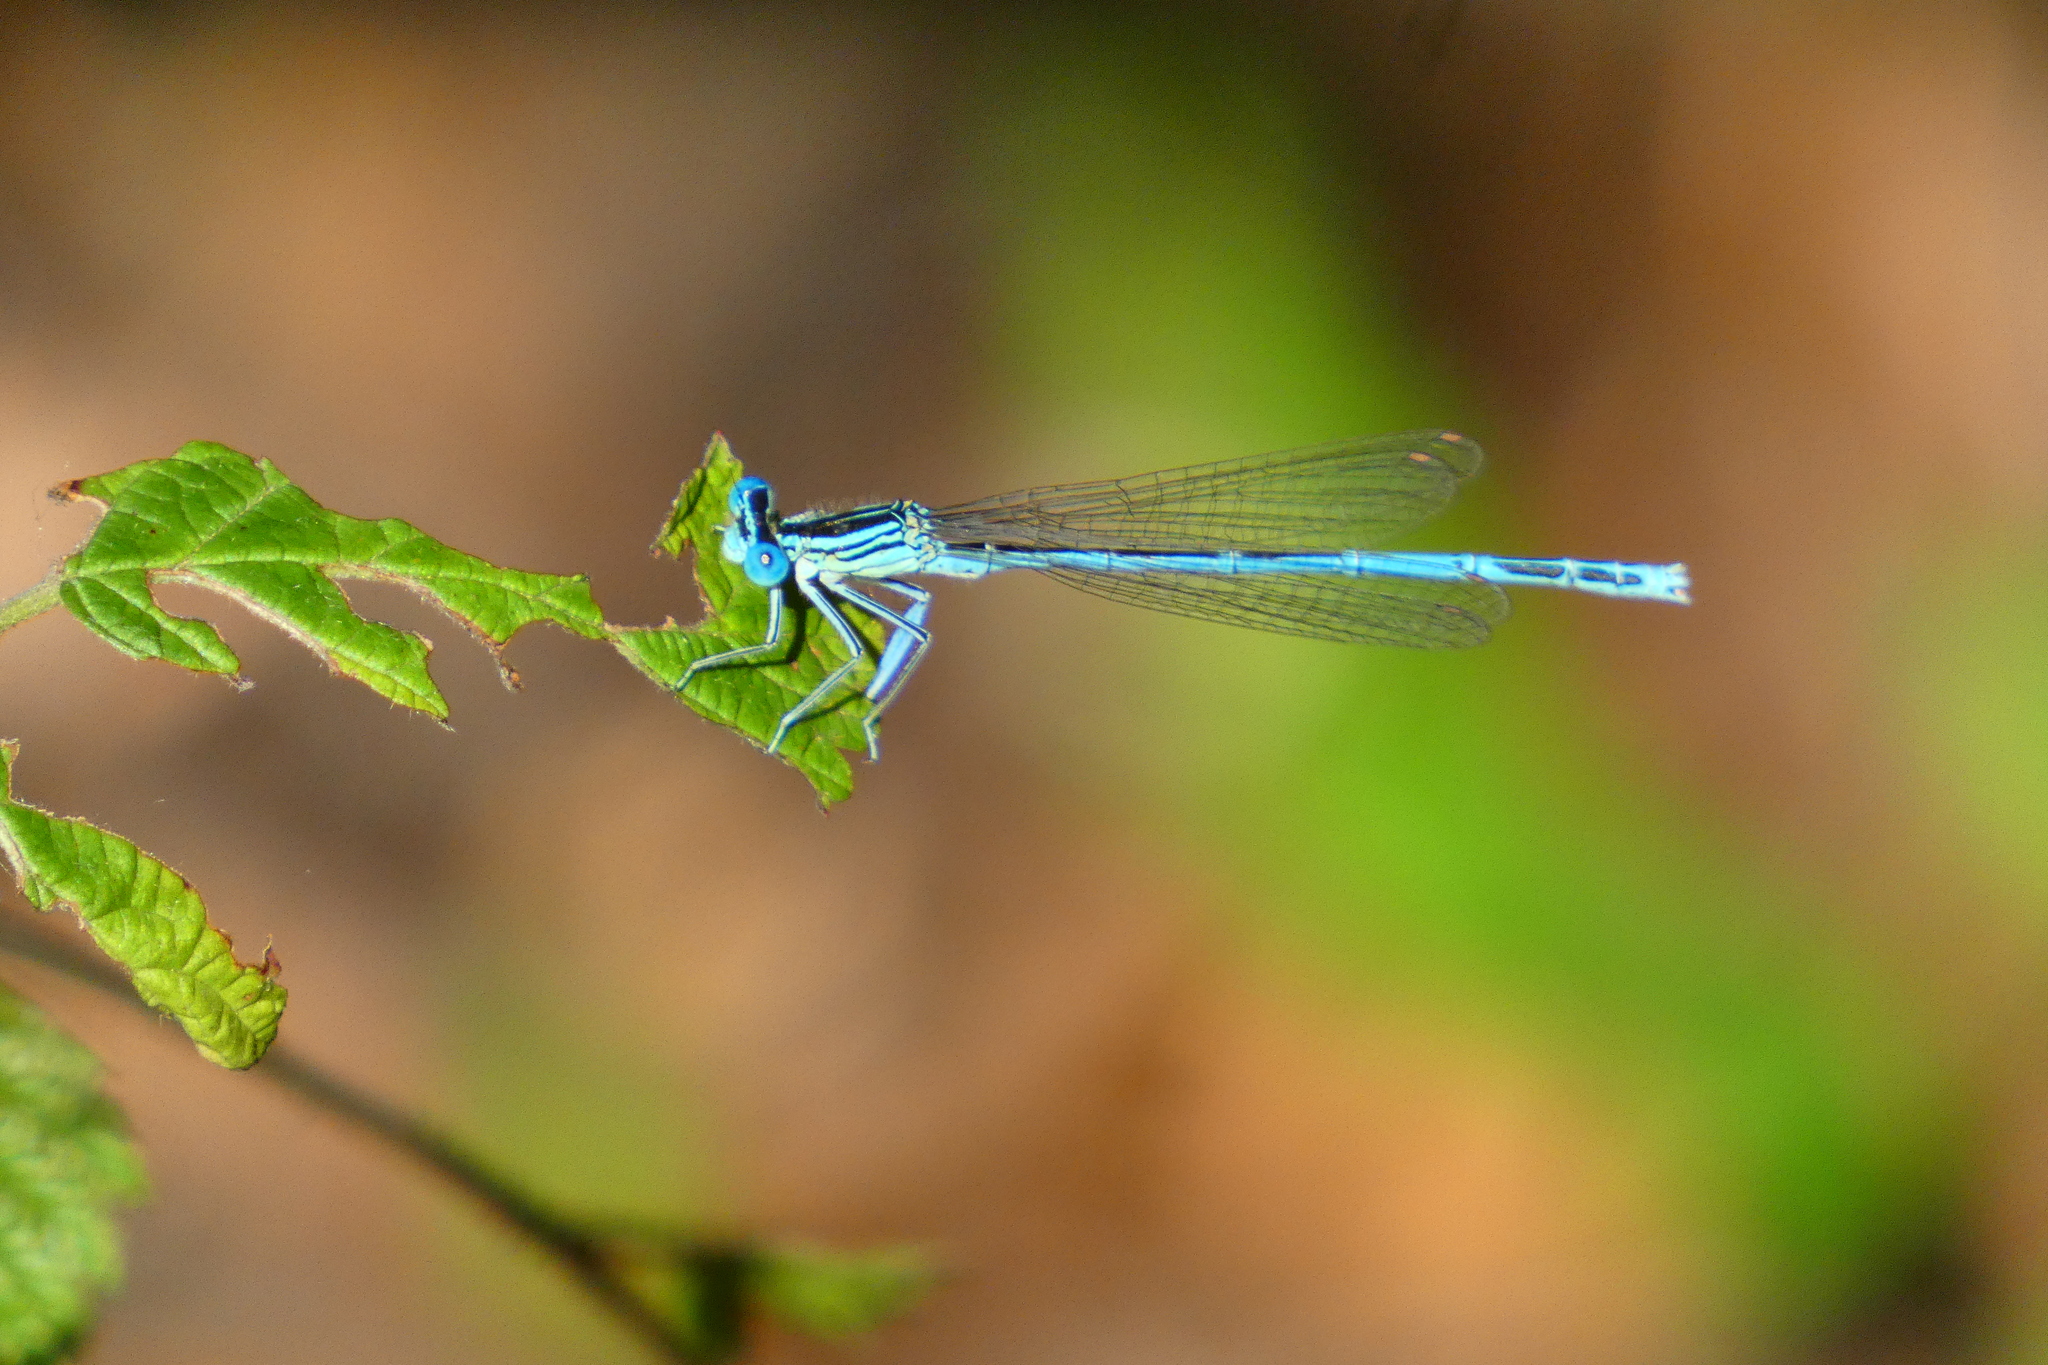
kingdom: Animalia
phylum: Arthropoda
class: Insecta
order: Odonata
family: Platycnemididae
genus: Platycnemis
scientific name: Platycnemis pennipes
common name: White-legged damselfly
